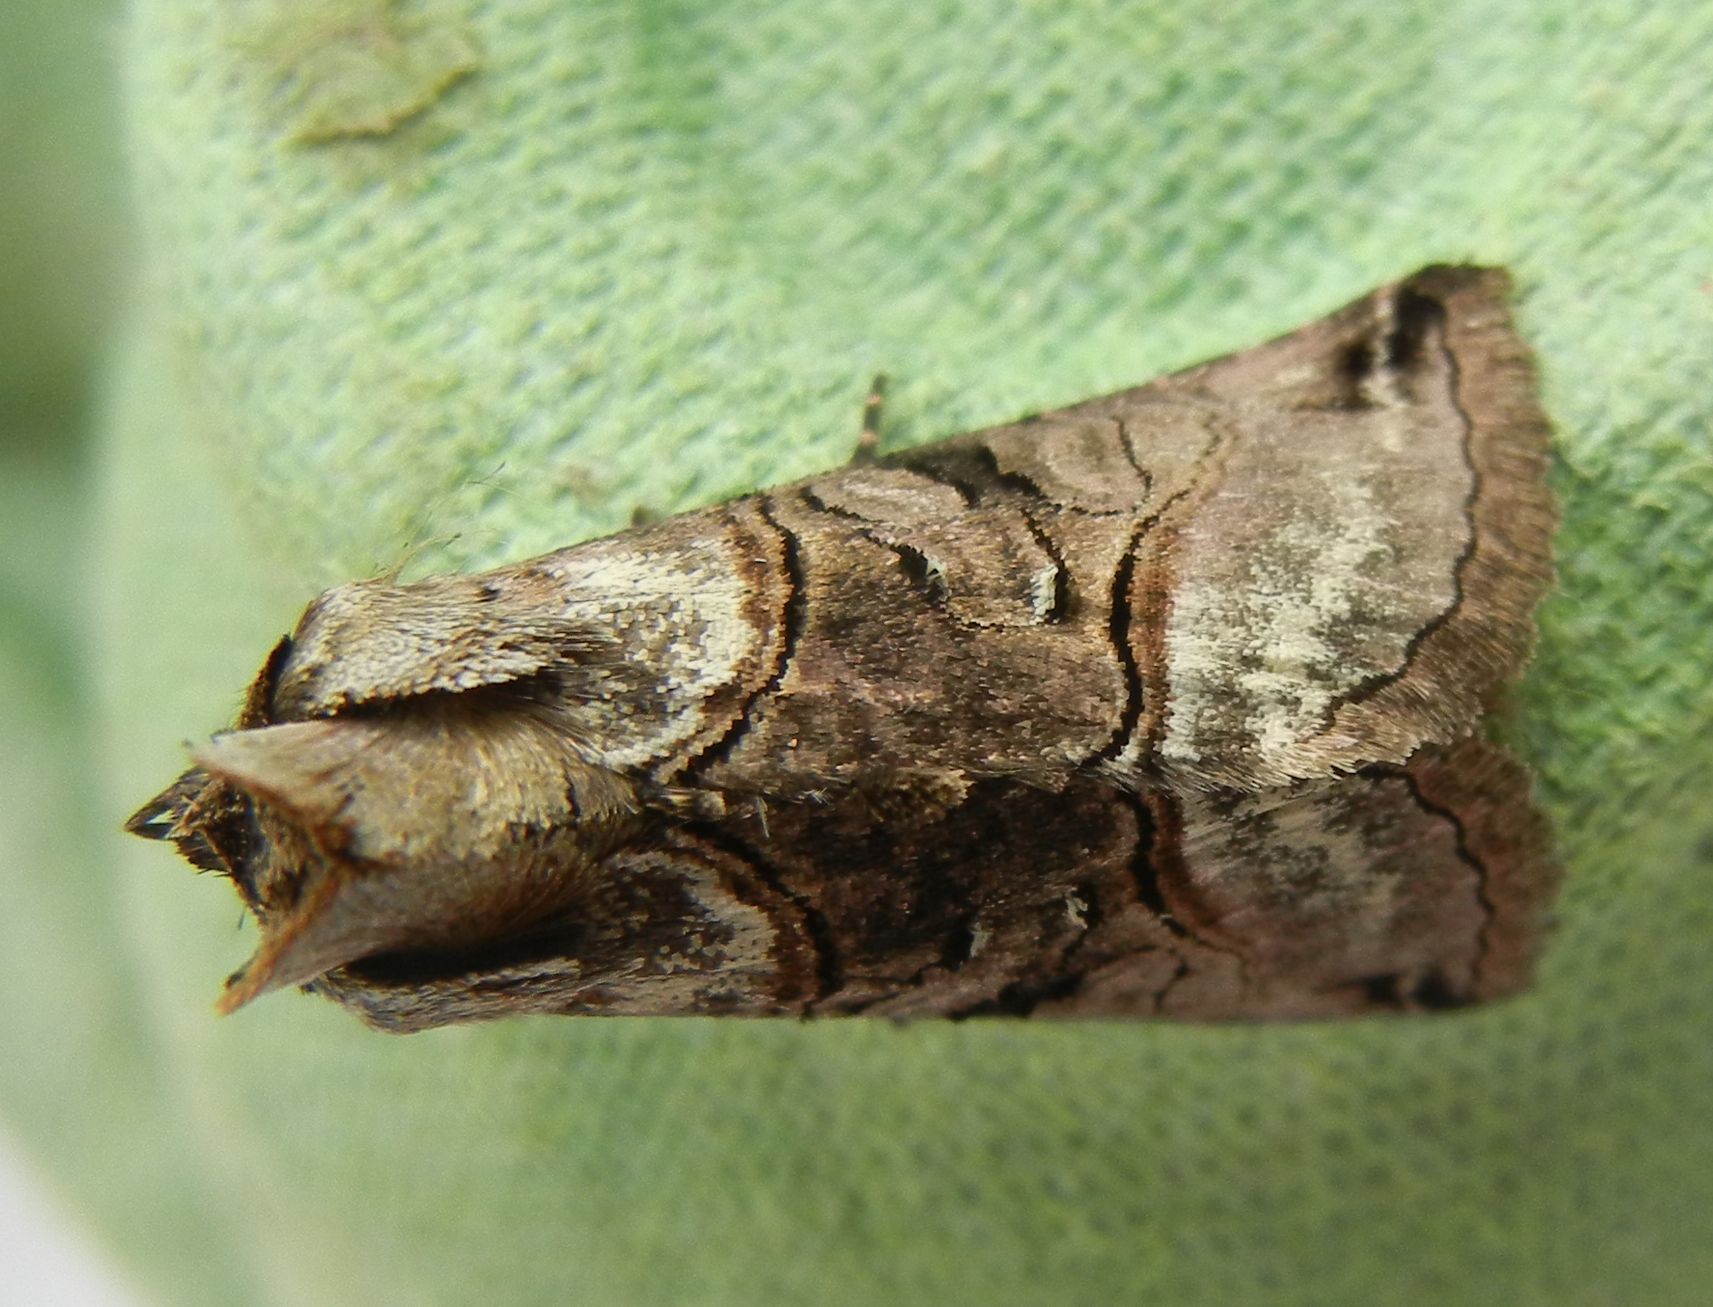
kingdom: Animalia
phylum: Arthropoda
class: Insecta
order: Lepidoptera
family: Noctuidae
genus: Abrostola
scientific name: Abrostola tripartita
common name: Spectacle
